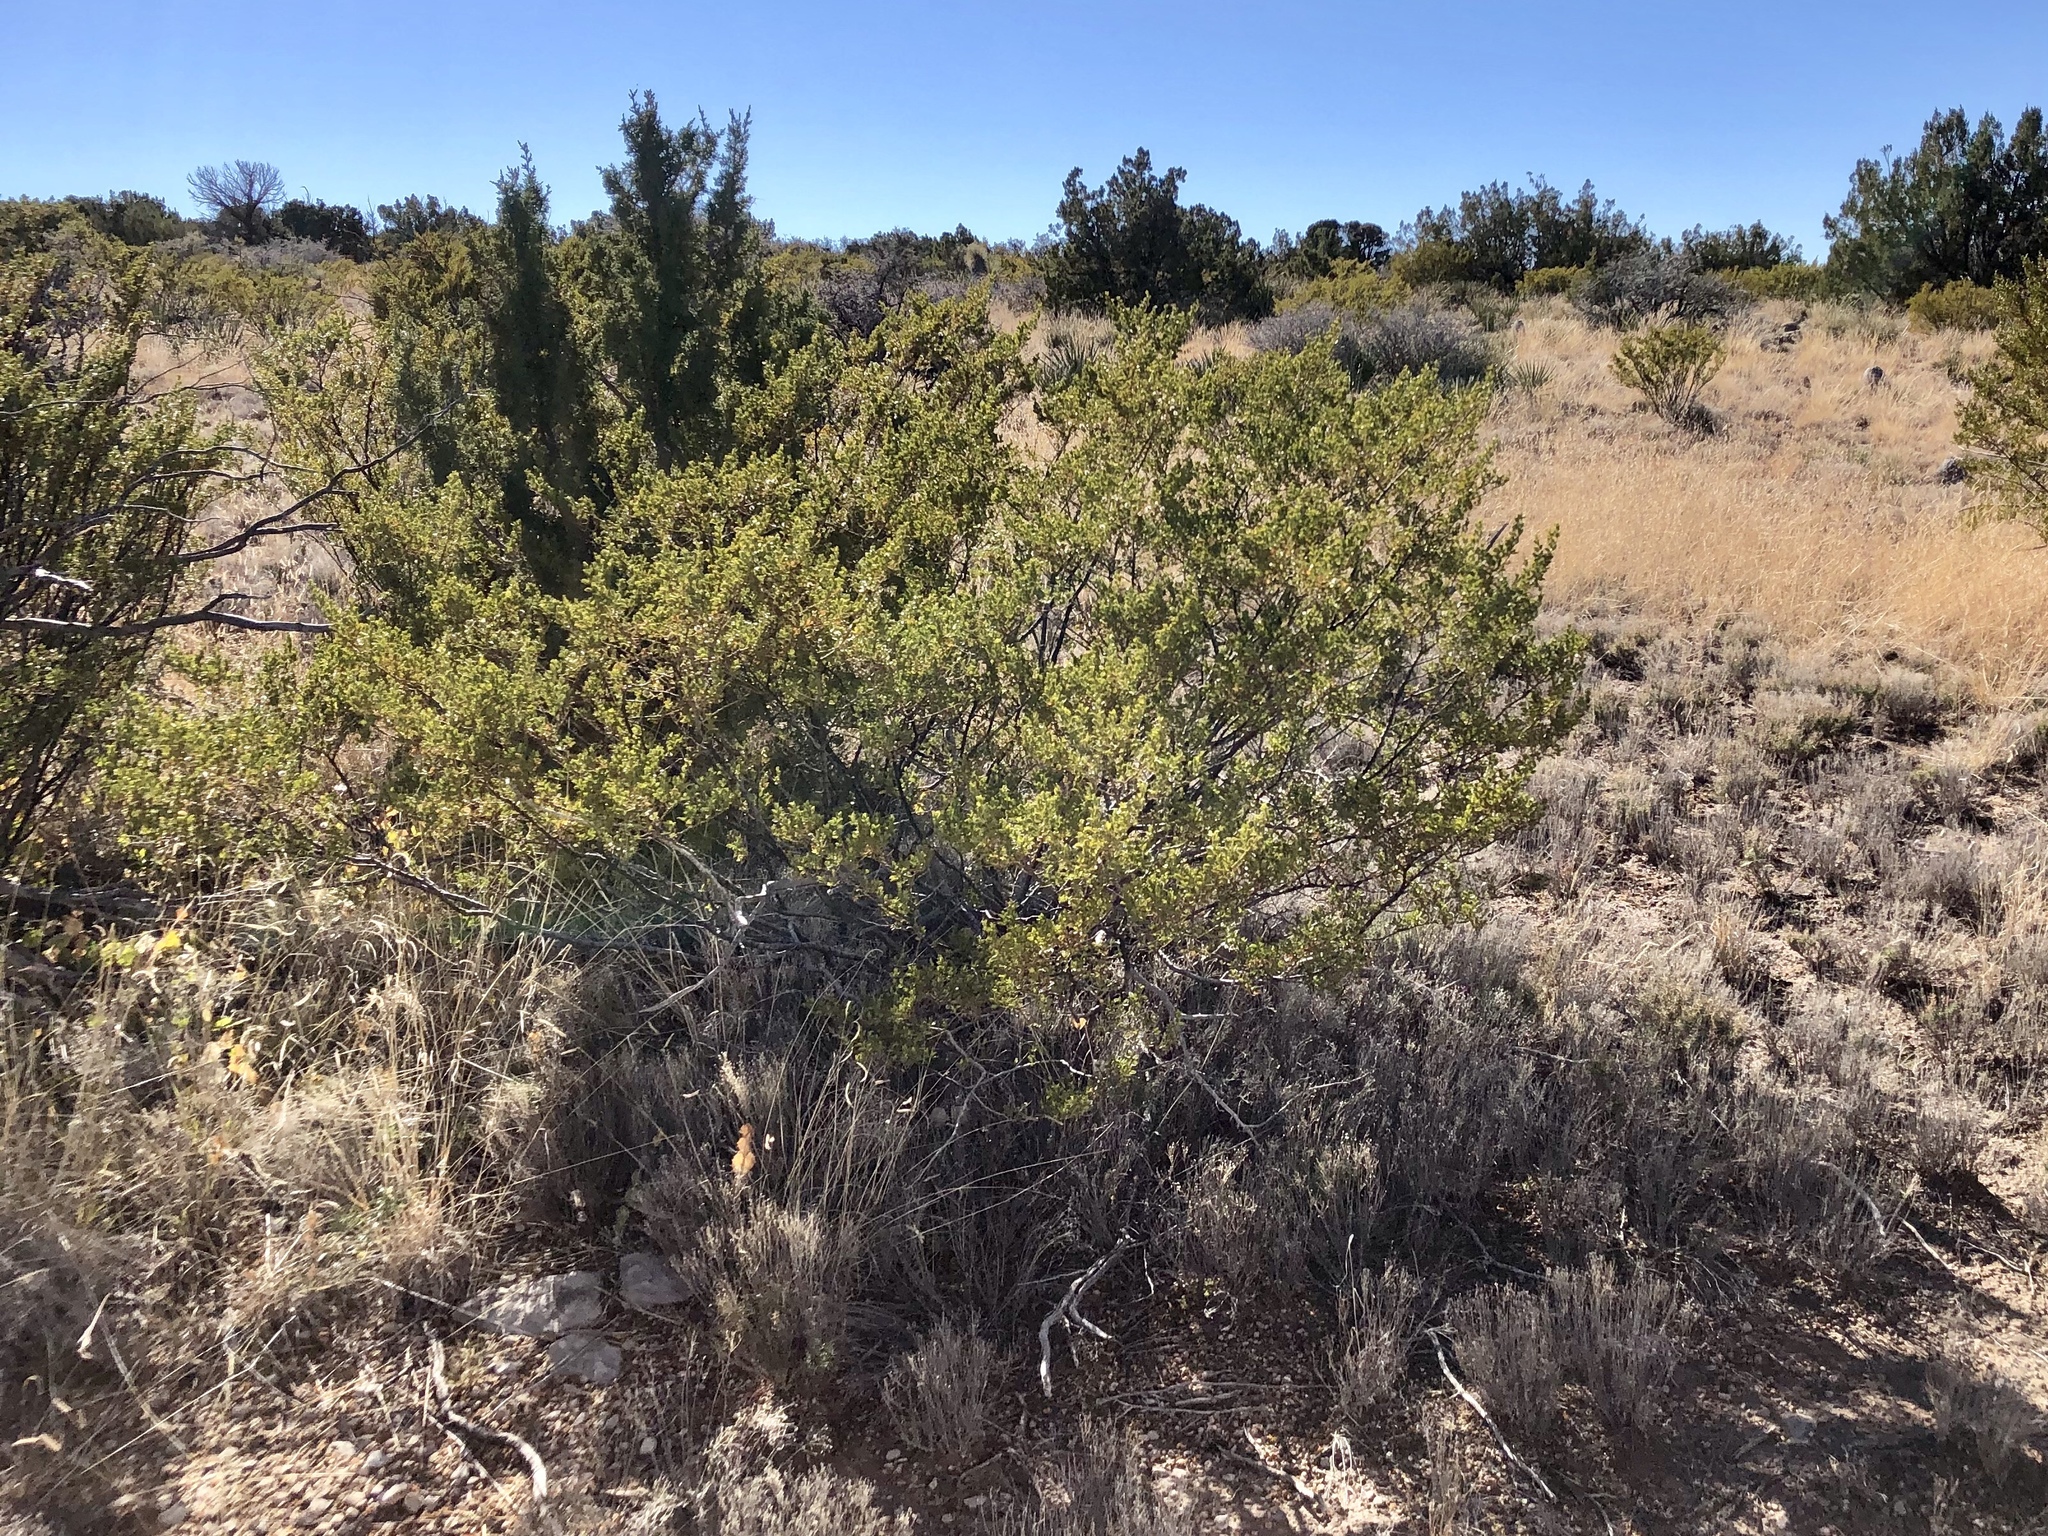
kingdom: Plantae
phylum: Tracheophyta
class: Magnoliopsida
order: Zygophyllales
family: Zygophyllaceae
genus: Larrea
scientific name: Larrea tridentata
